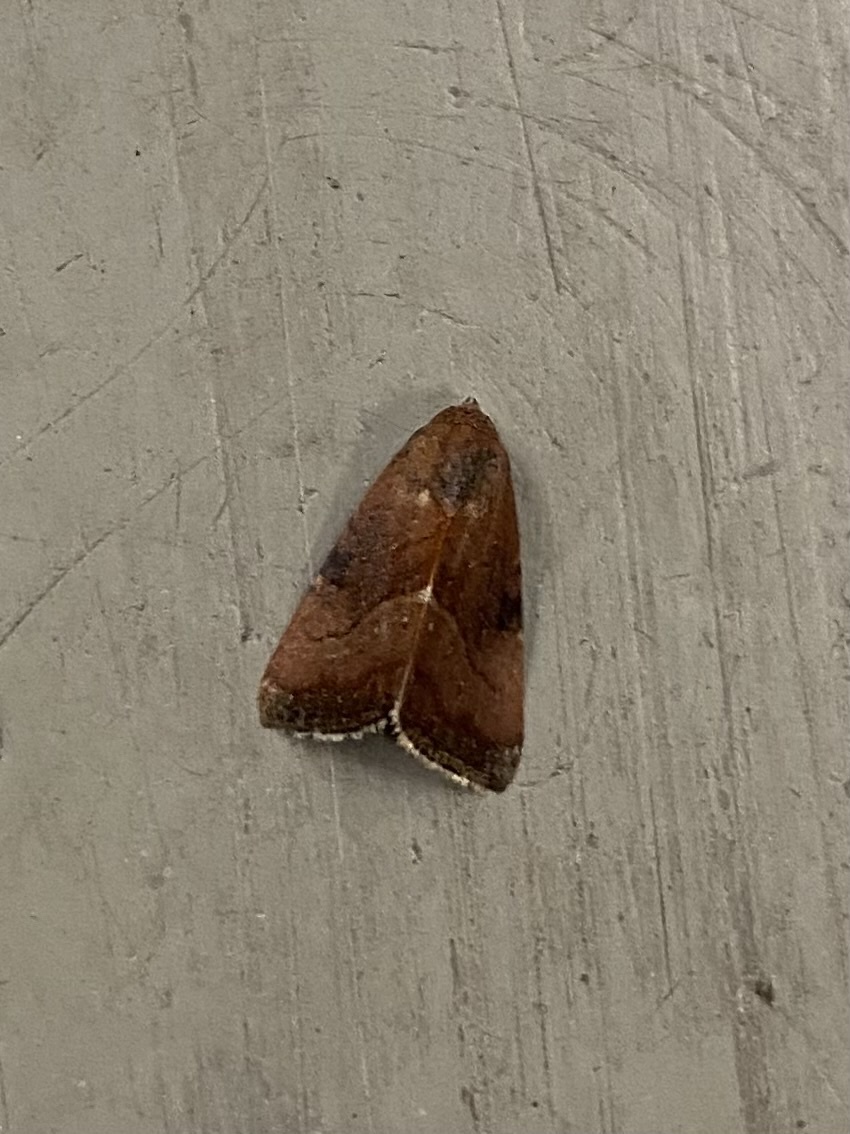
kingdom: Animalia
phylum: Arthropoda
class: Insecta
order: Lepidoptera
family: Noctuidae
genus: Galgula
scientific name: Galgula partita
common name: Wedgeling
